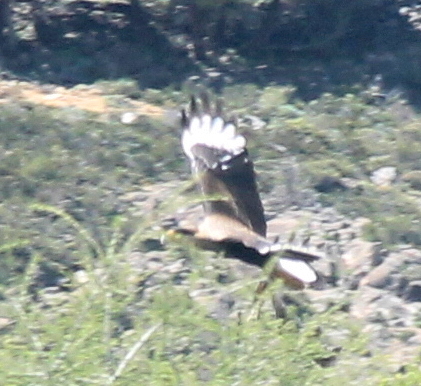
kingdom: Animalia
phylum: Chordata
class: Aves
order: Falconiformes
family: Falconidae
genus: Caracara
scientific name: Caracara plancus
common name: Southern caracara
